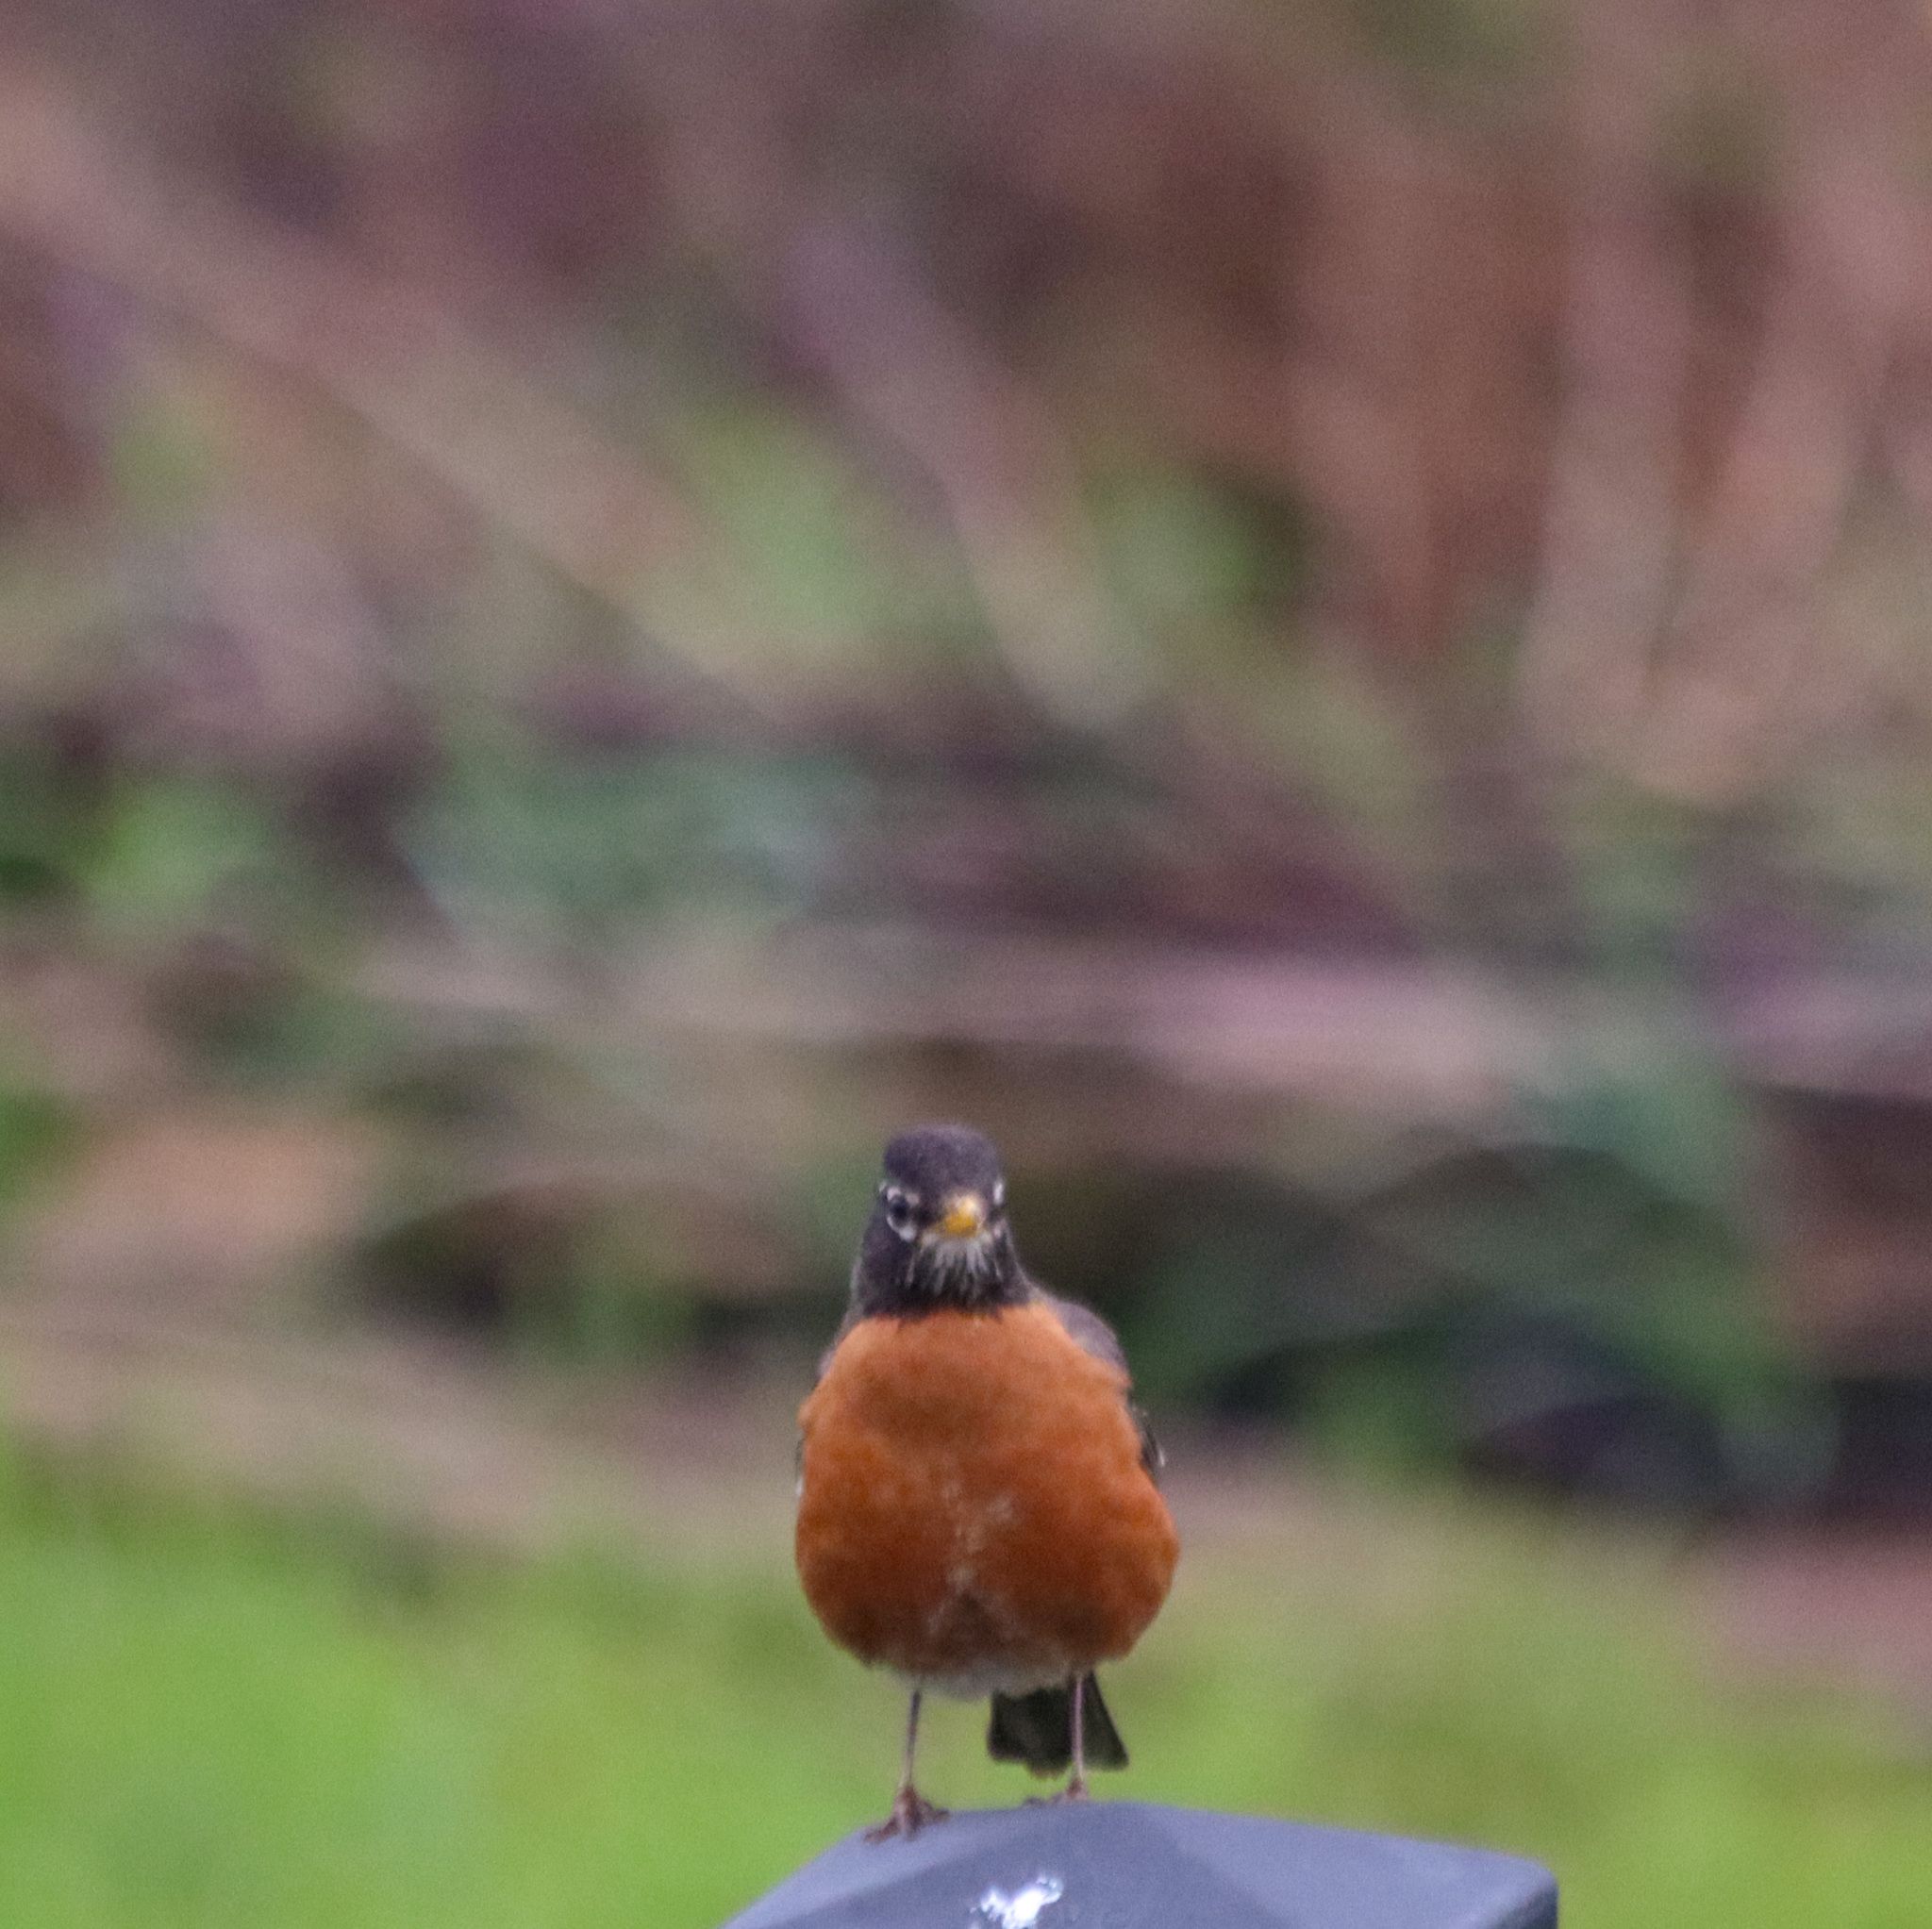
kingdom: Animalia
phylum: Chordata
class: Aves
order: Passeriformes
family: Turdidae
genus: Turdus
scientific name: Turdus migratorius
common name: American robin
